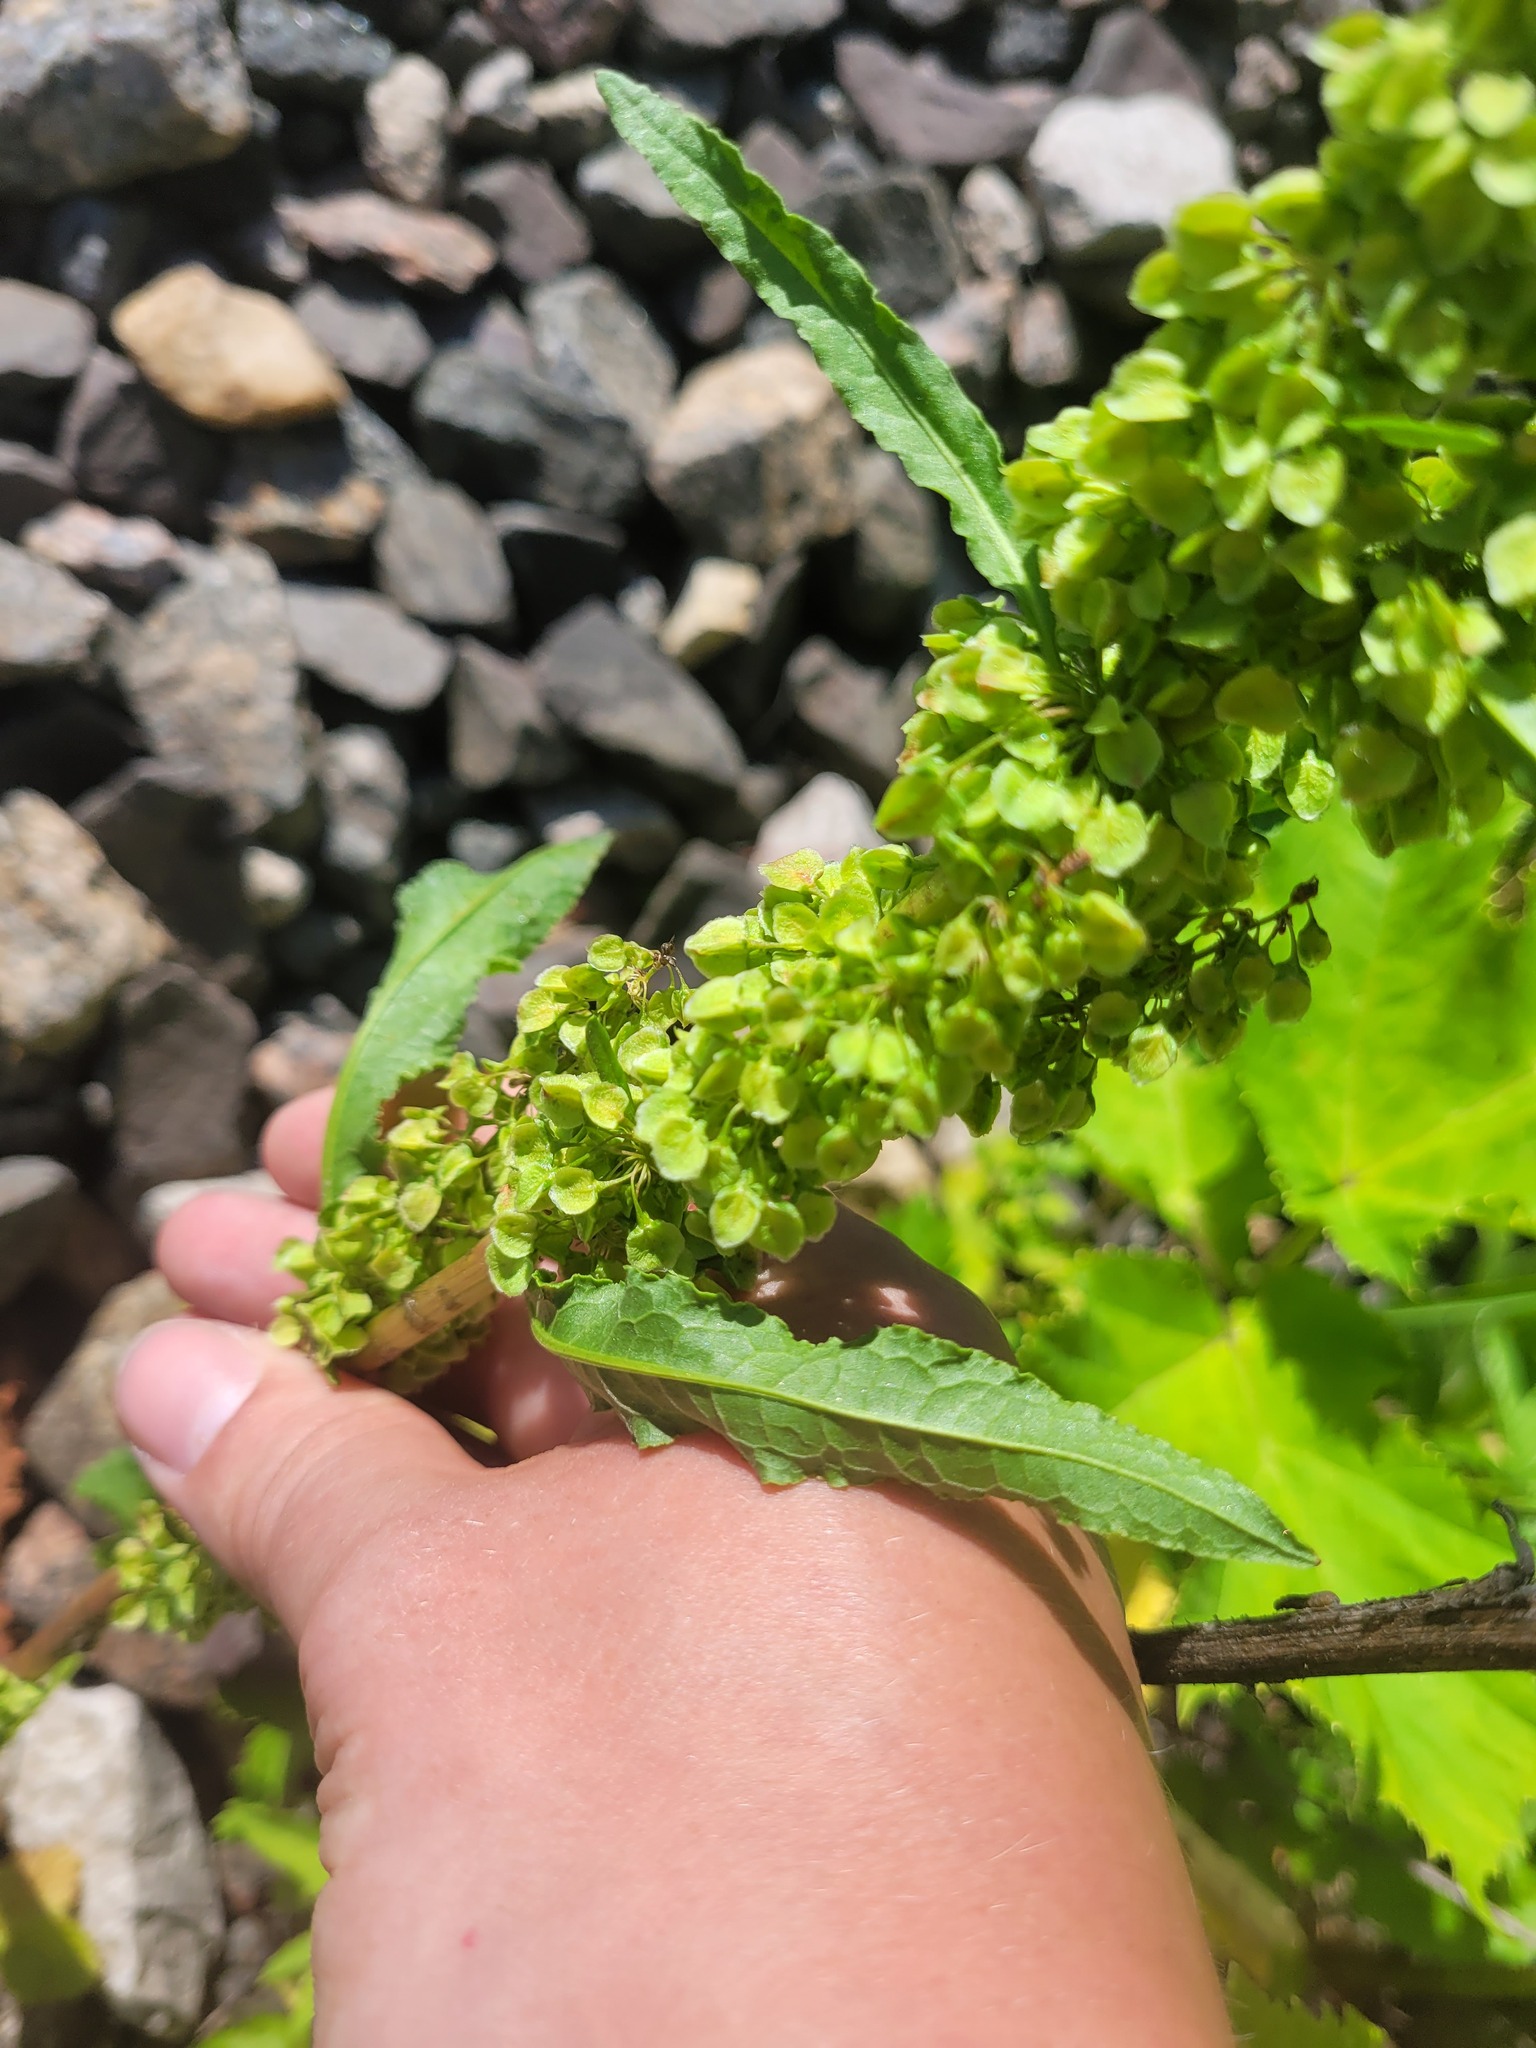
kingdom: Plantae
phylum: Tracheophyta
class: Magnoliopsida
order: Caryophyllales
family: Polygonaceae
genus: Rumex
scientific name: Rumex longifolius
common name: Dooryard dock
